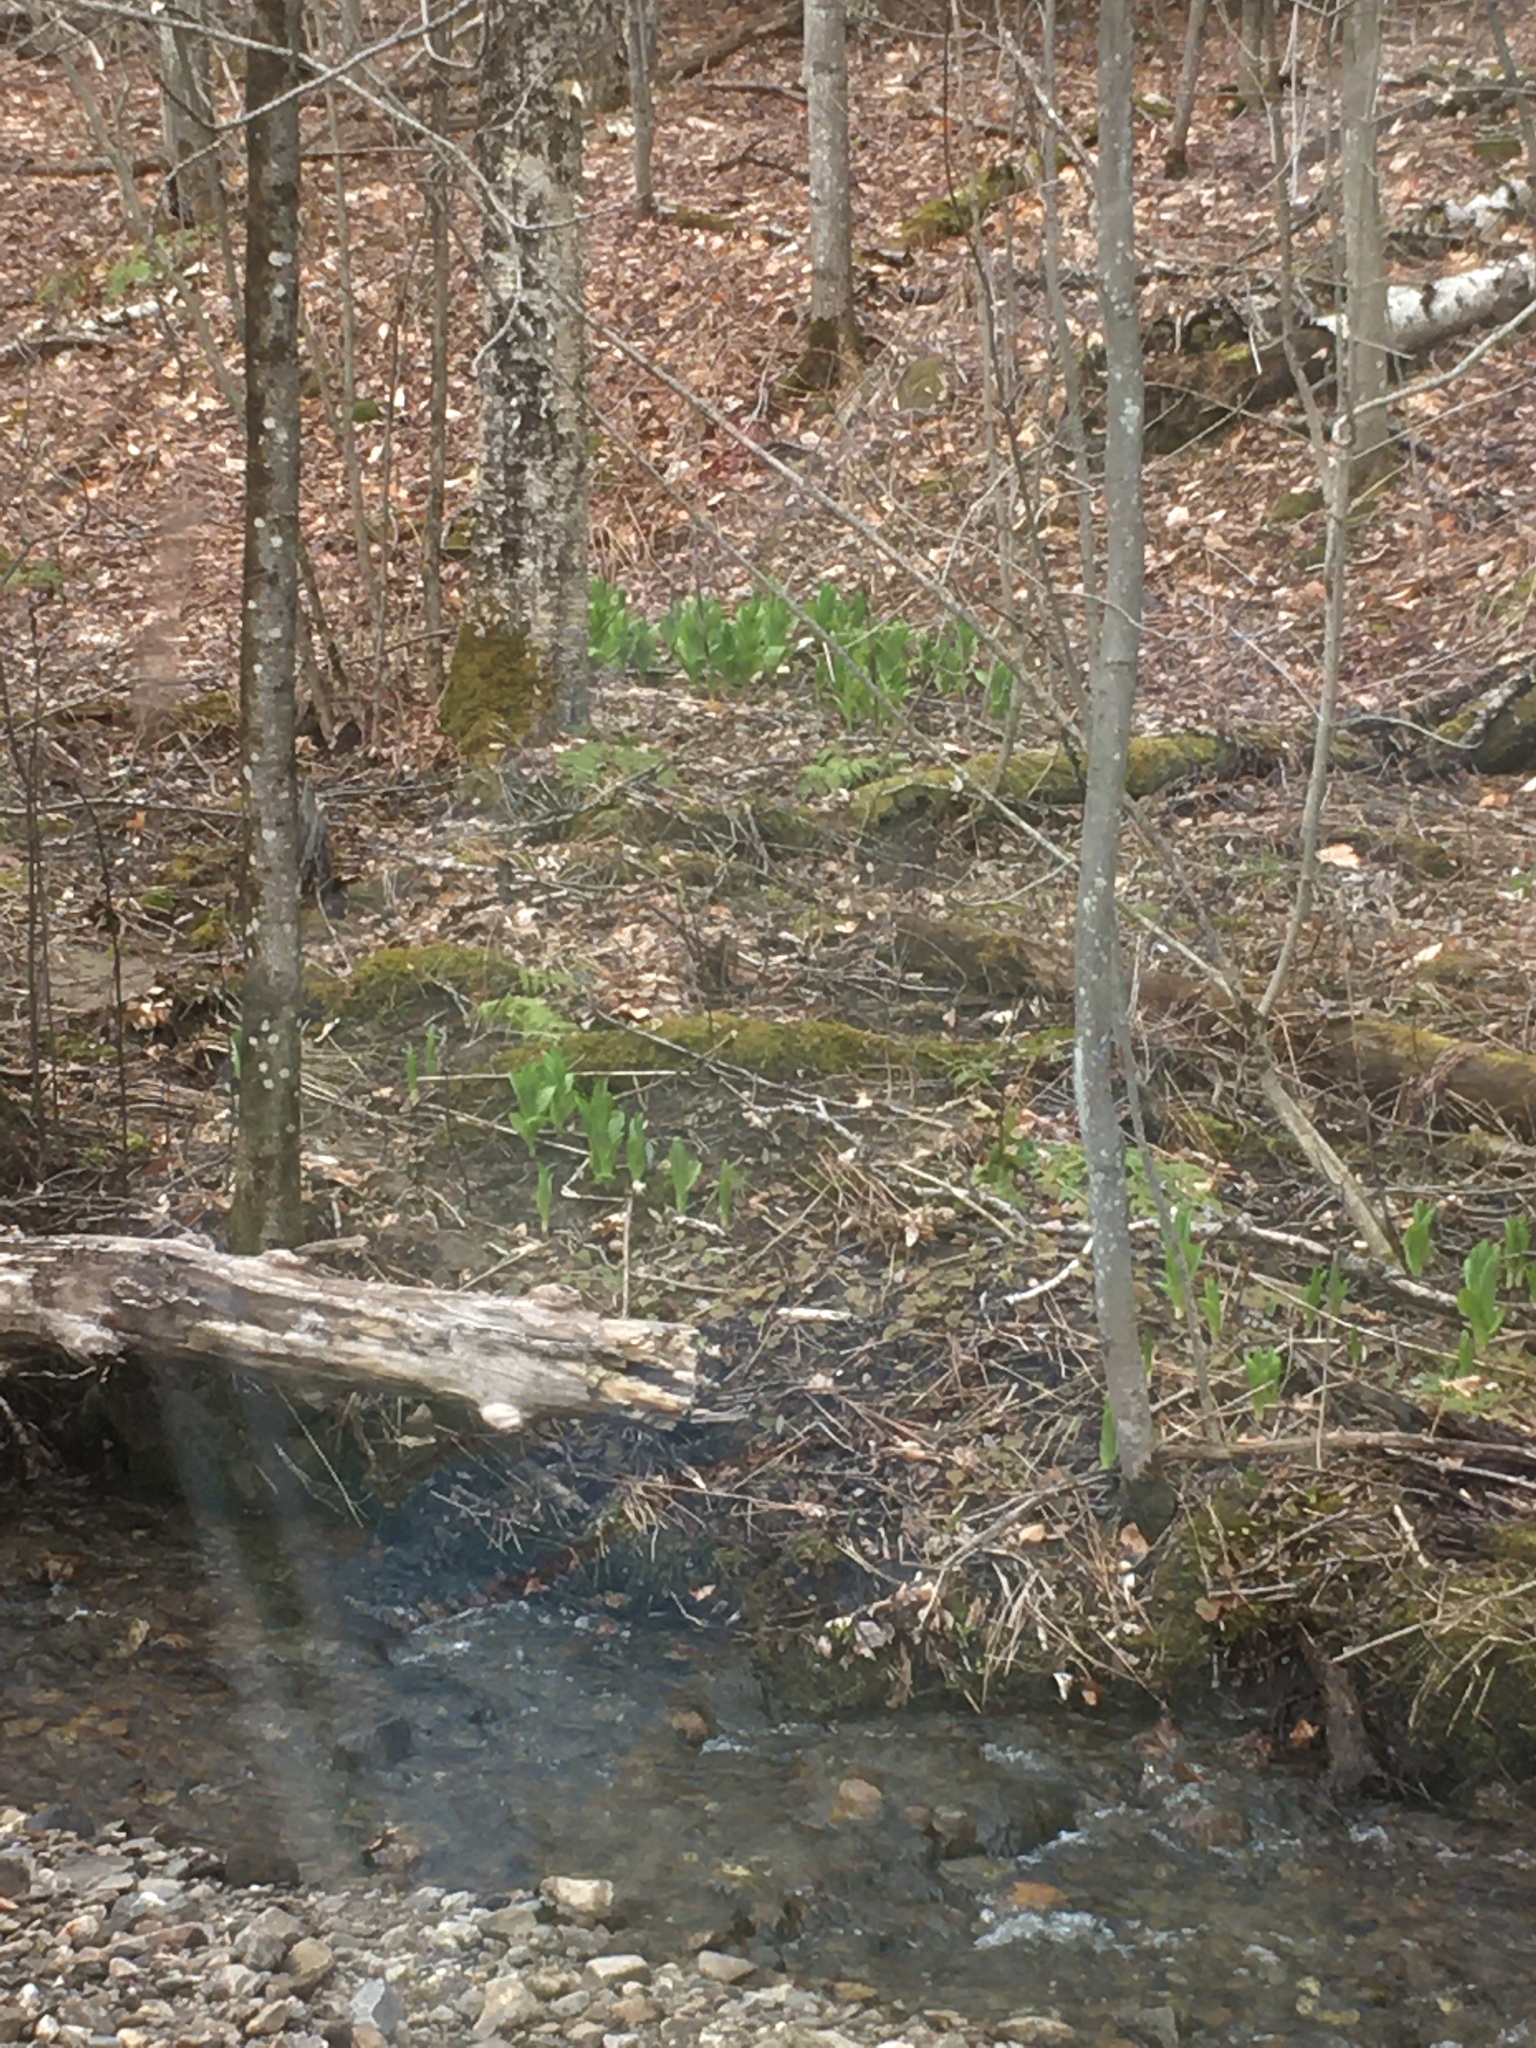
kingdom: Plantae
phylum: Tracheophyta
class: Liliopsida
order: Liliales
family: Melanthiaceae
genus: Veratrum
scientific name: Veratrum viride
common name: American false hellebore
